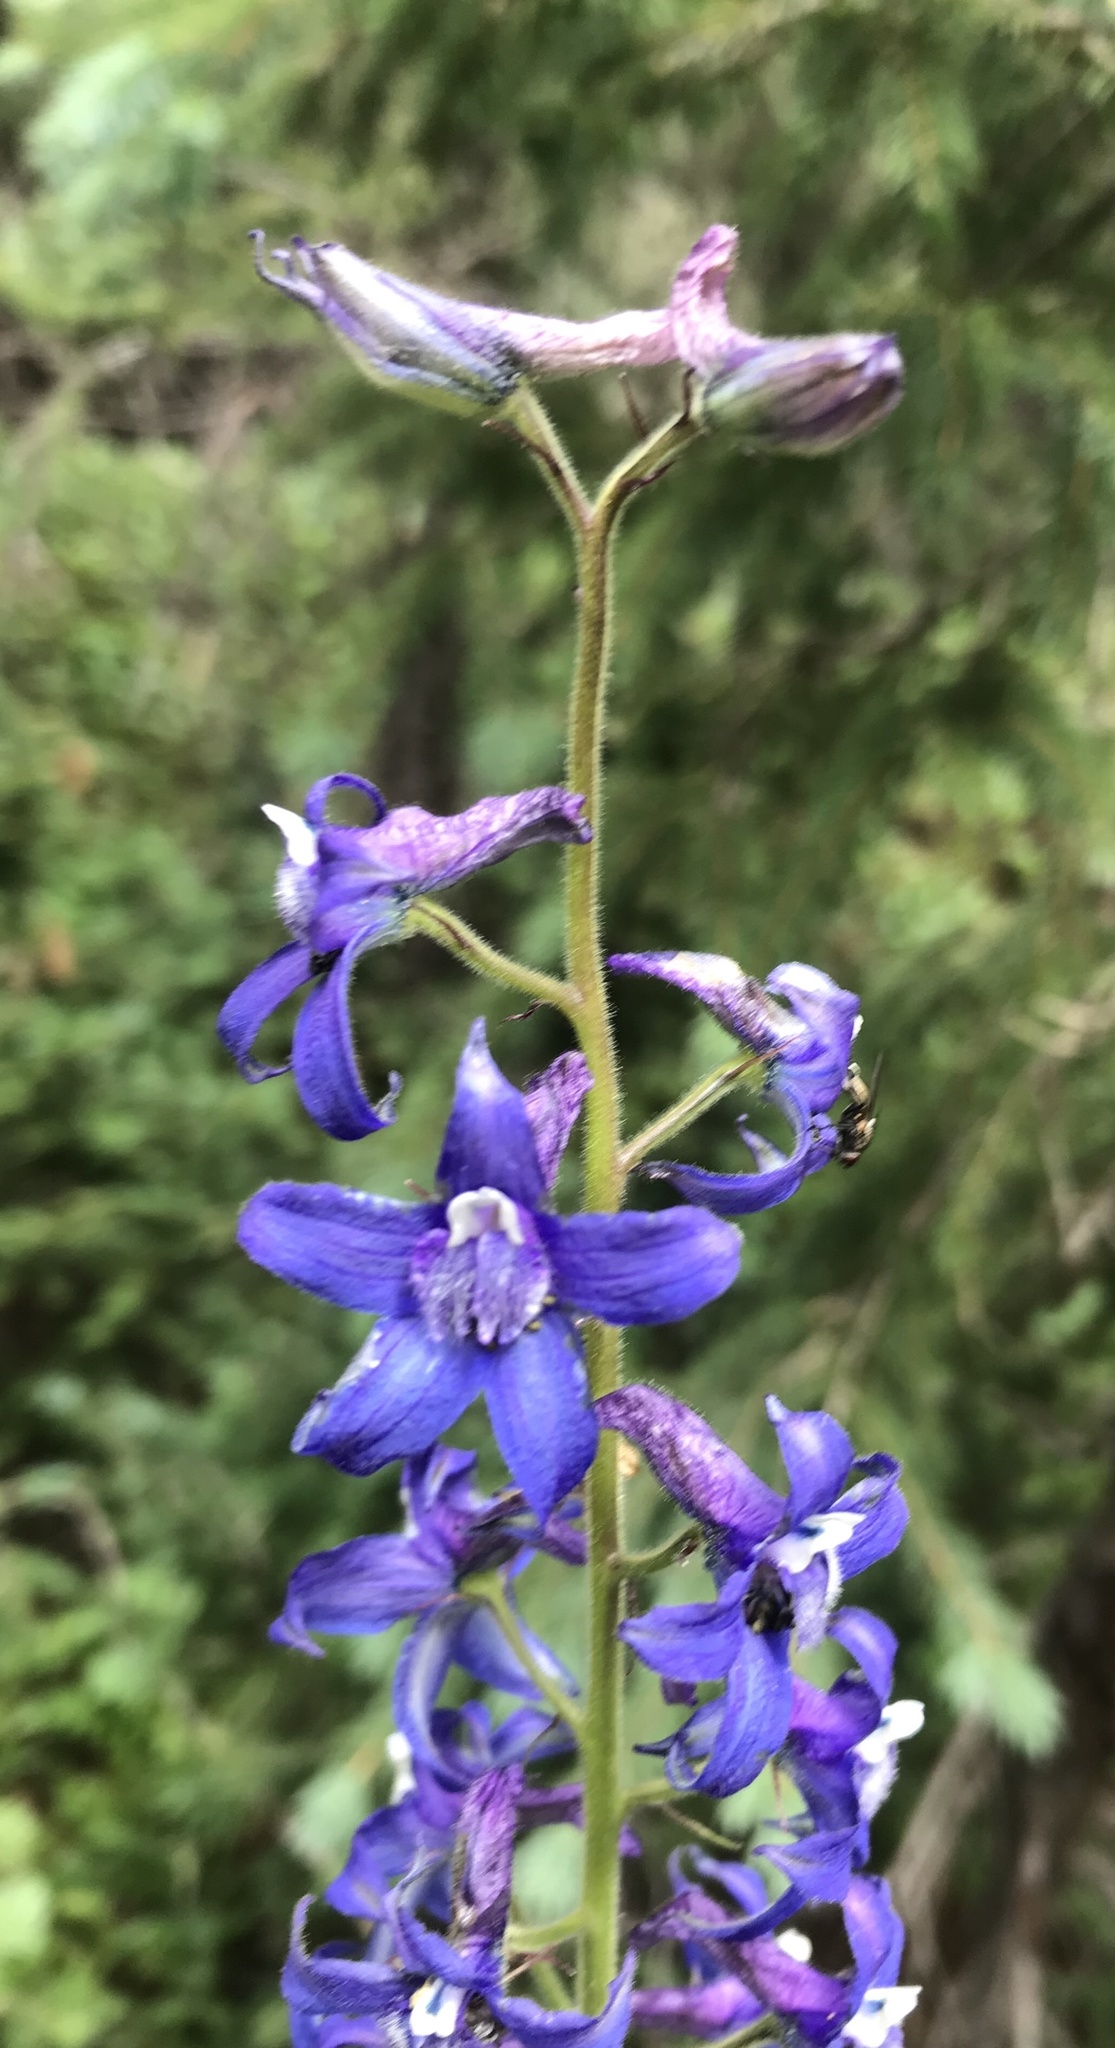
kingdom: Plantae
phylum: Tracheophyta
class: Magnoliopsida
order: Ranunculales
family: Ranunculaceae
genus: Delphinium
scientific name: Delphinium barbeyi
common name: Subalpine larkspur
